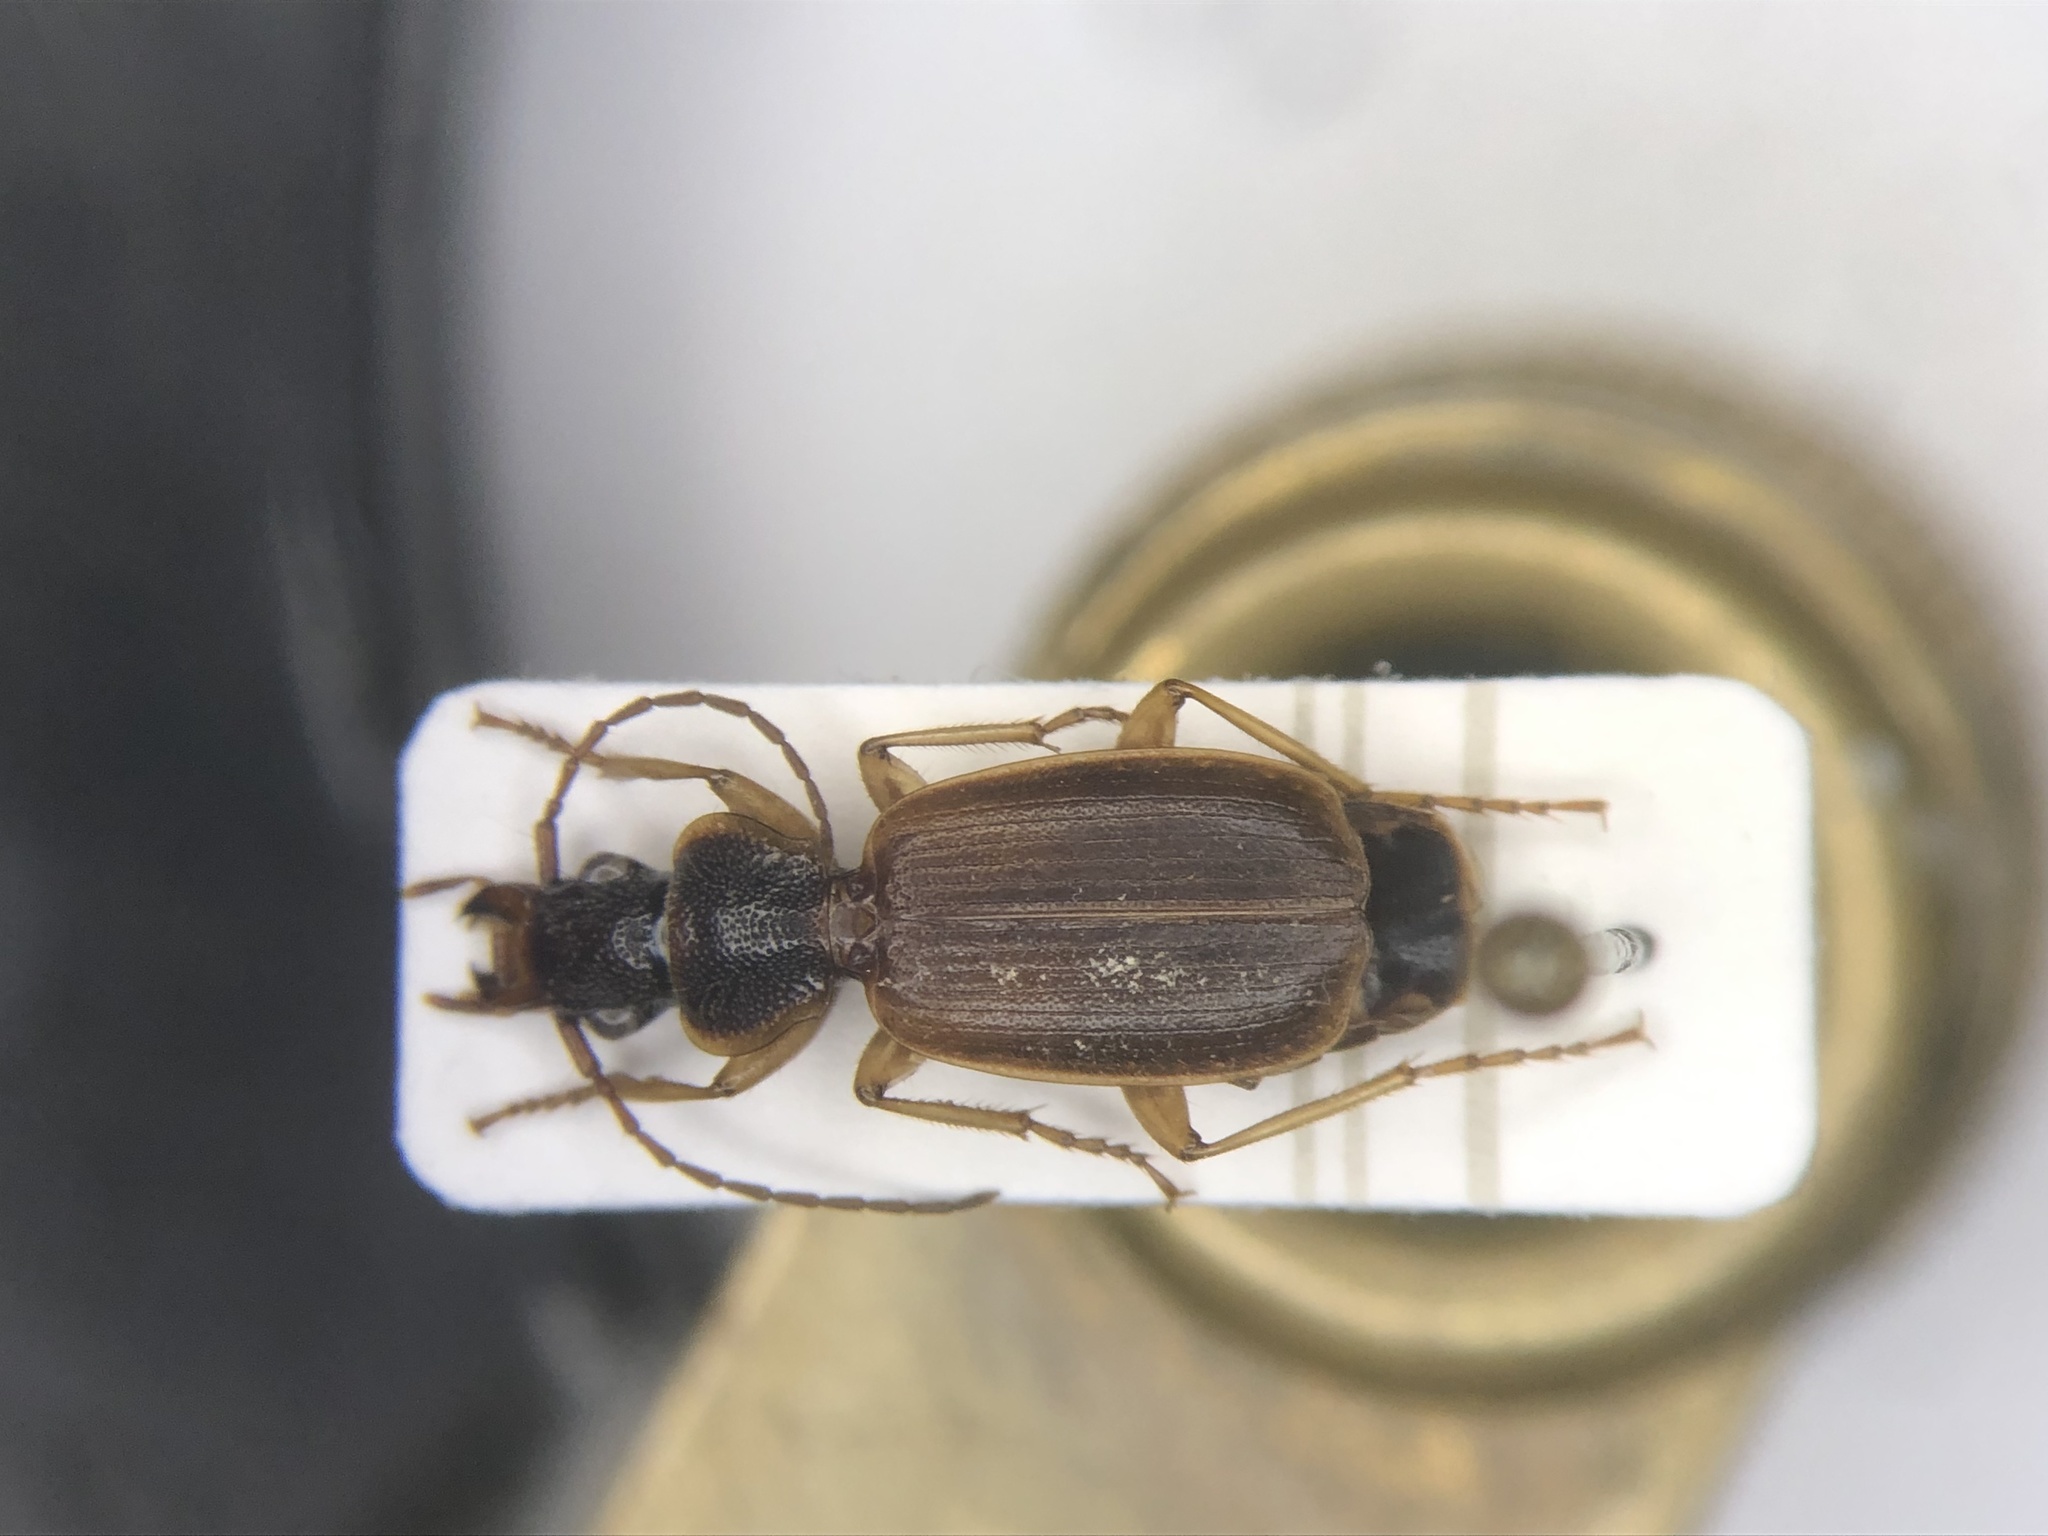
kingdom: Animalia
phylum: Arthropoda
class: Insecta
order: Coleoptera
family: Carabidae
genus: Cymindis
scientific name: Cymindis cribricollis
